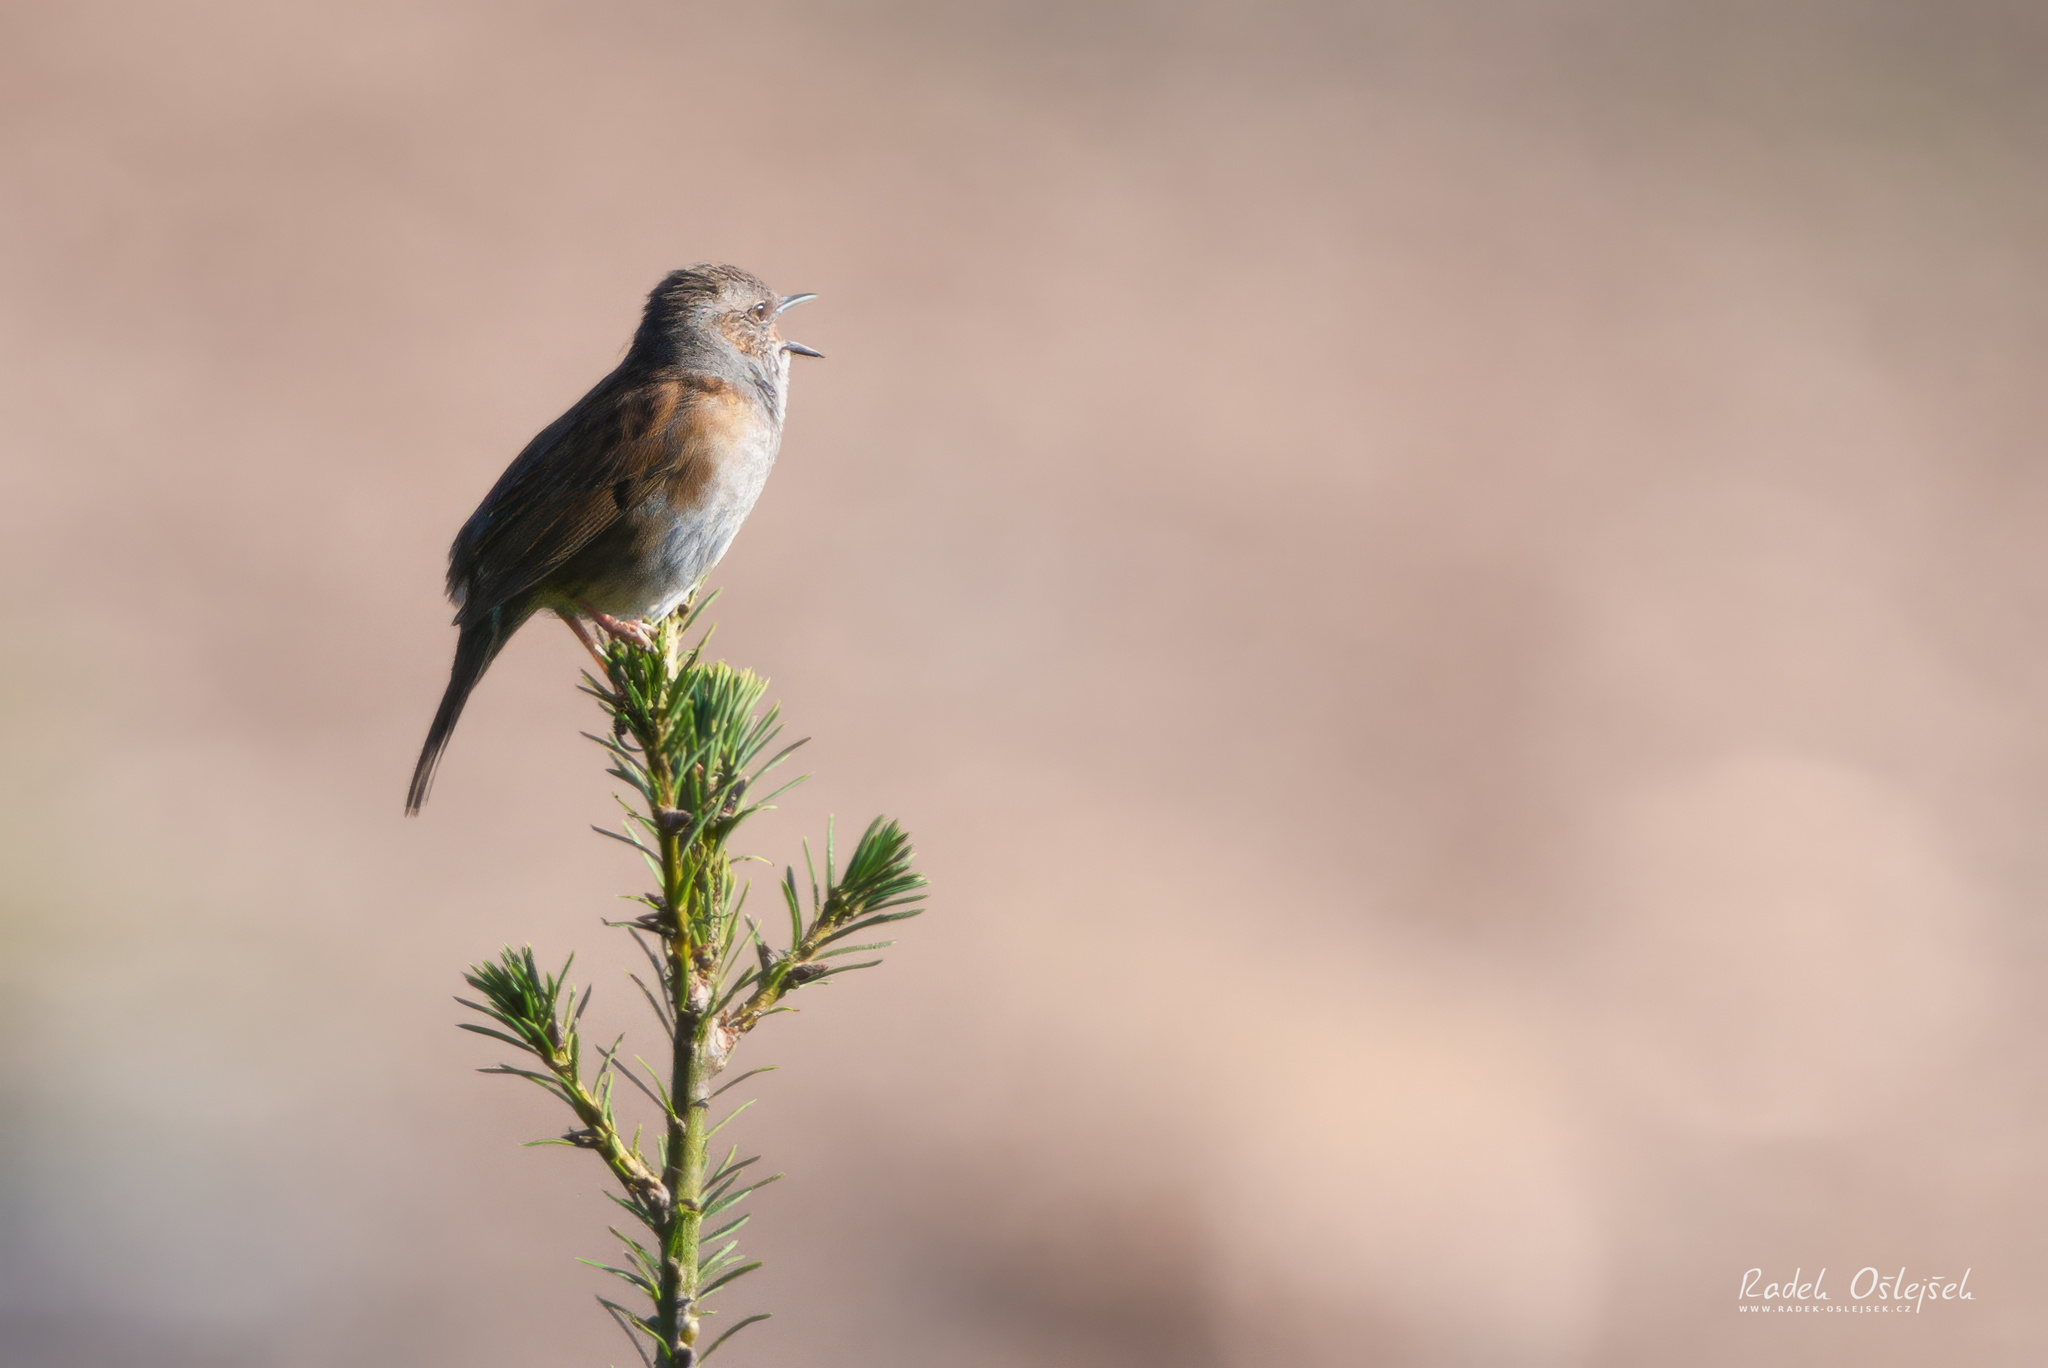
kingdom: Animalia
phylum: Chordata
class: Aves
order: Passeriformes
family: Prunellidae
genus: Prunella
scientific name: Prunella modularis
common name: Dunnock
